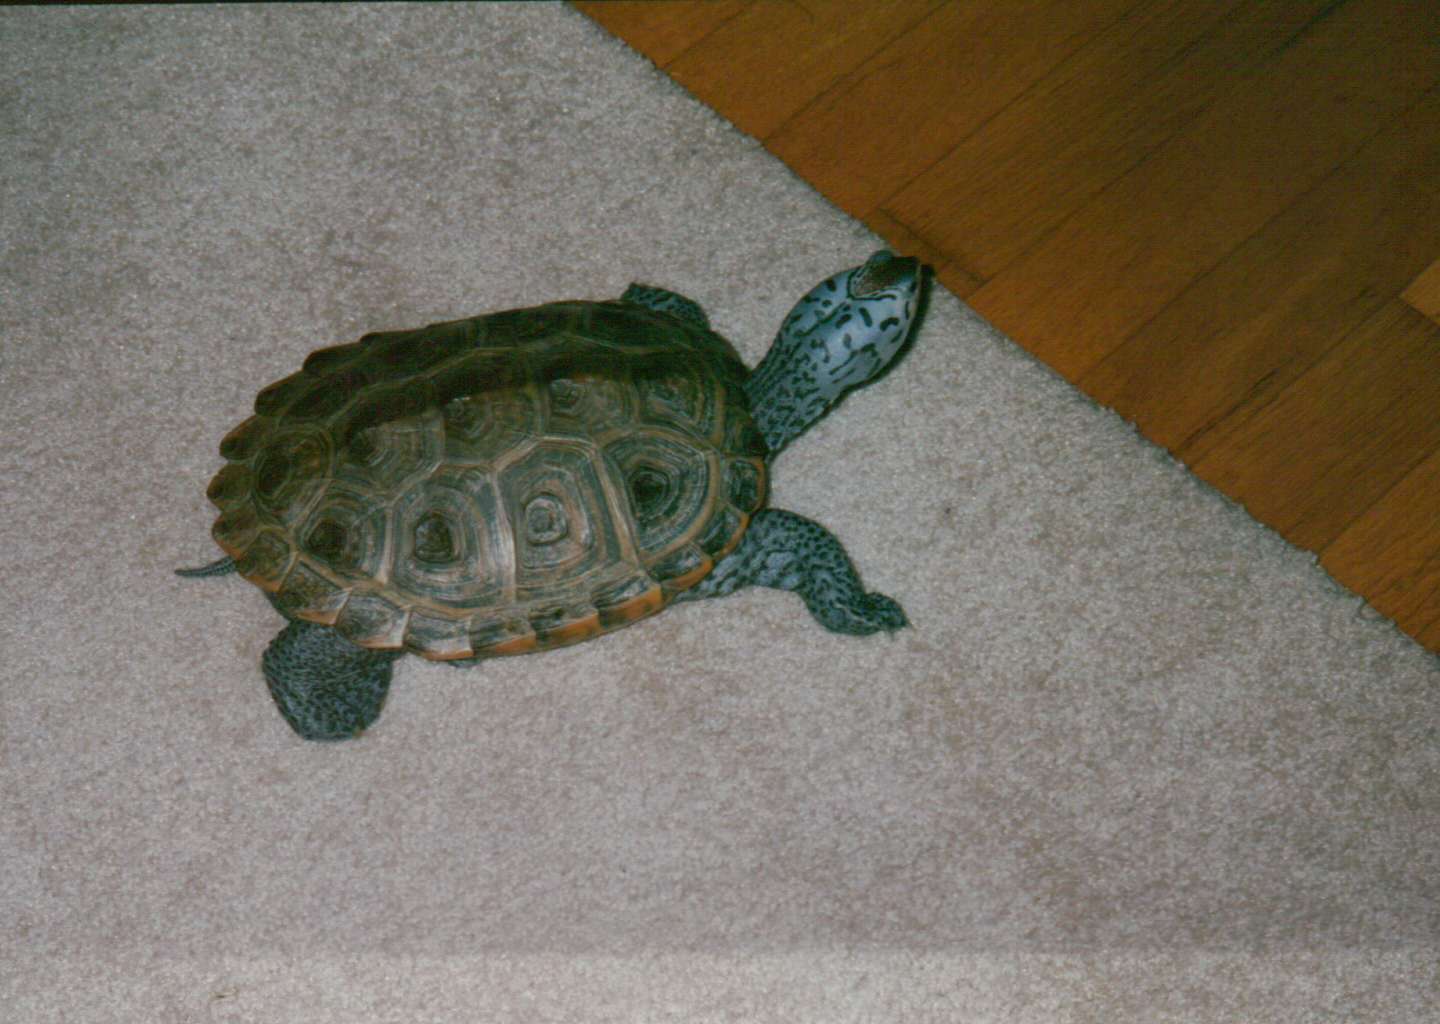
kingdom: Animalia
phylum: Chordata
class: Testudines
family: Emydidae
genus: Malaclemys
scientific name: Malaclemys terrapin
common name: Diamondback terrapin
